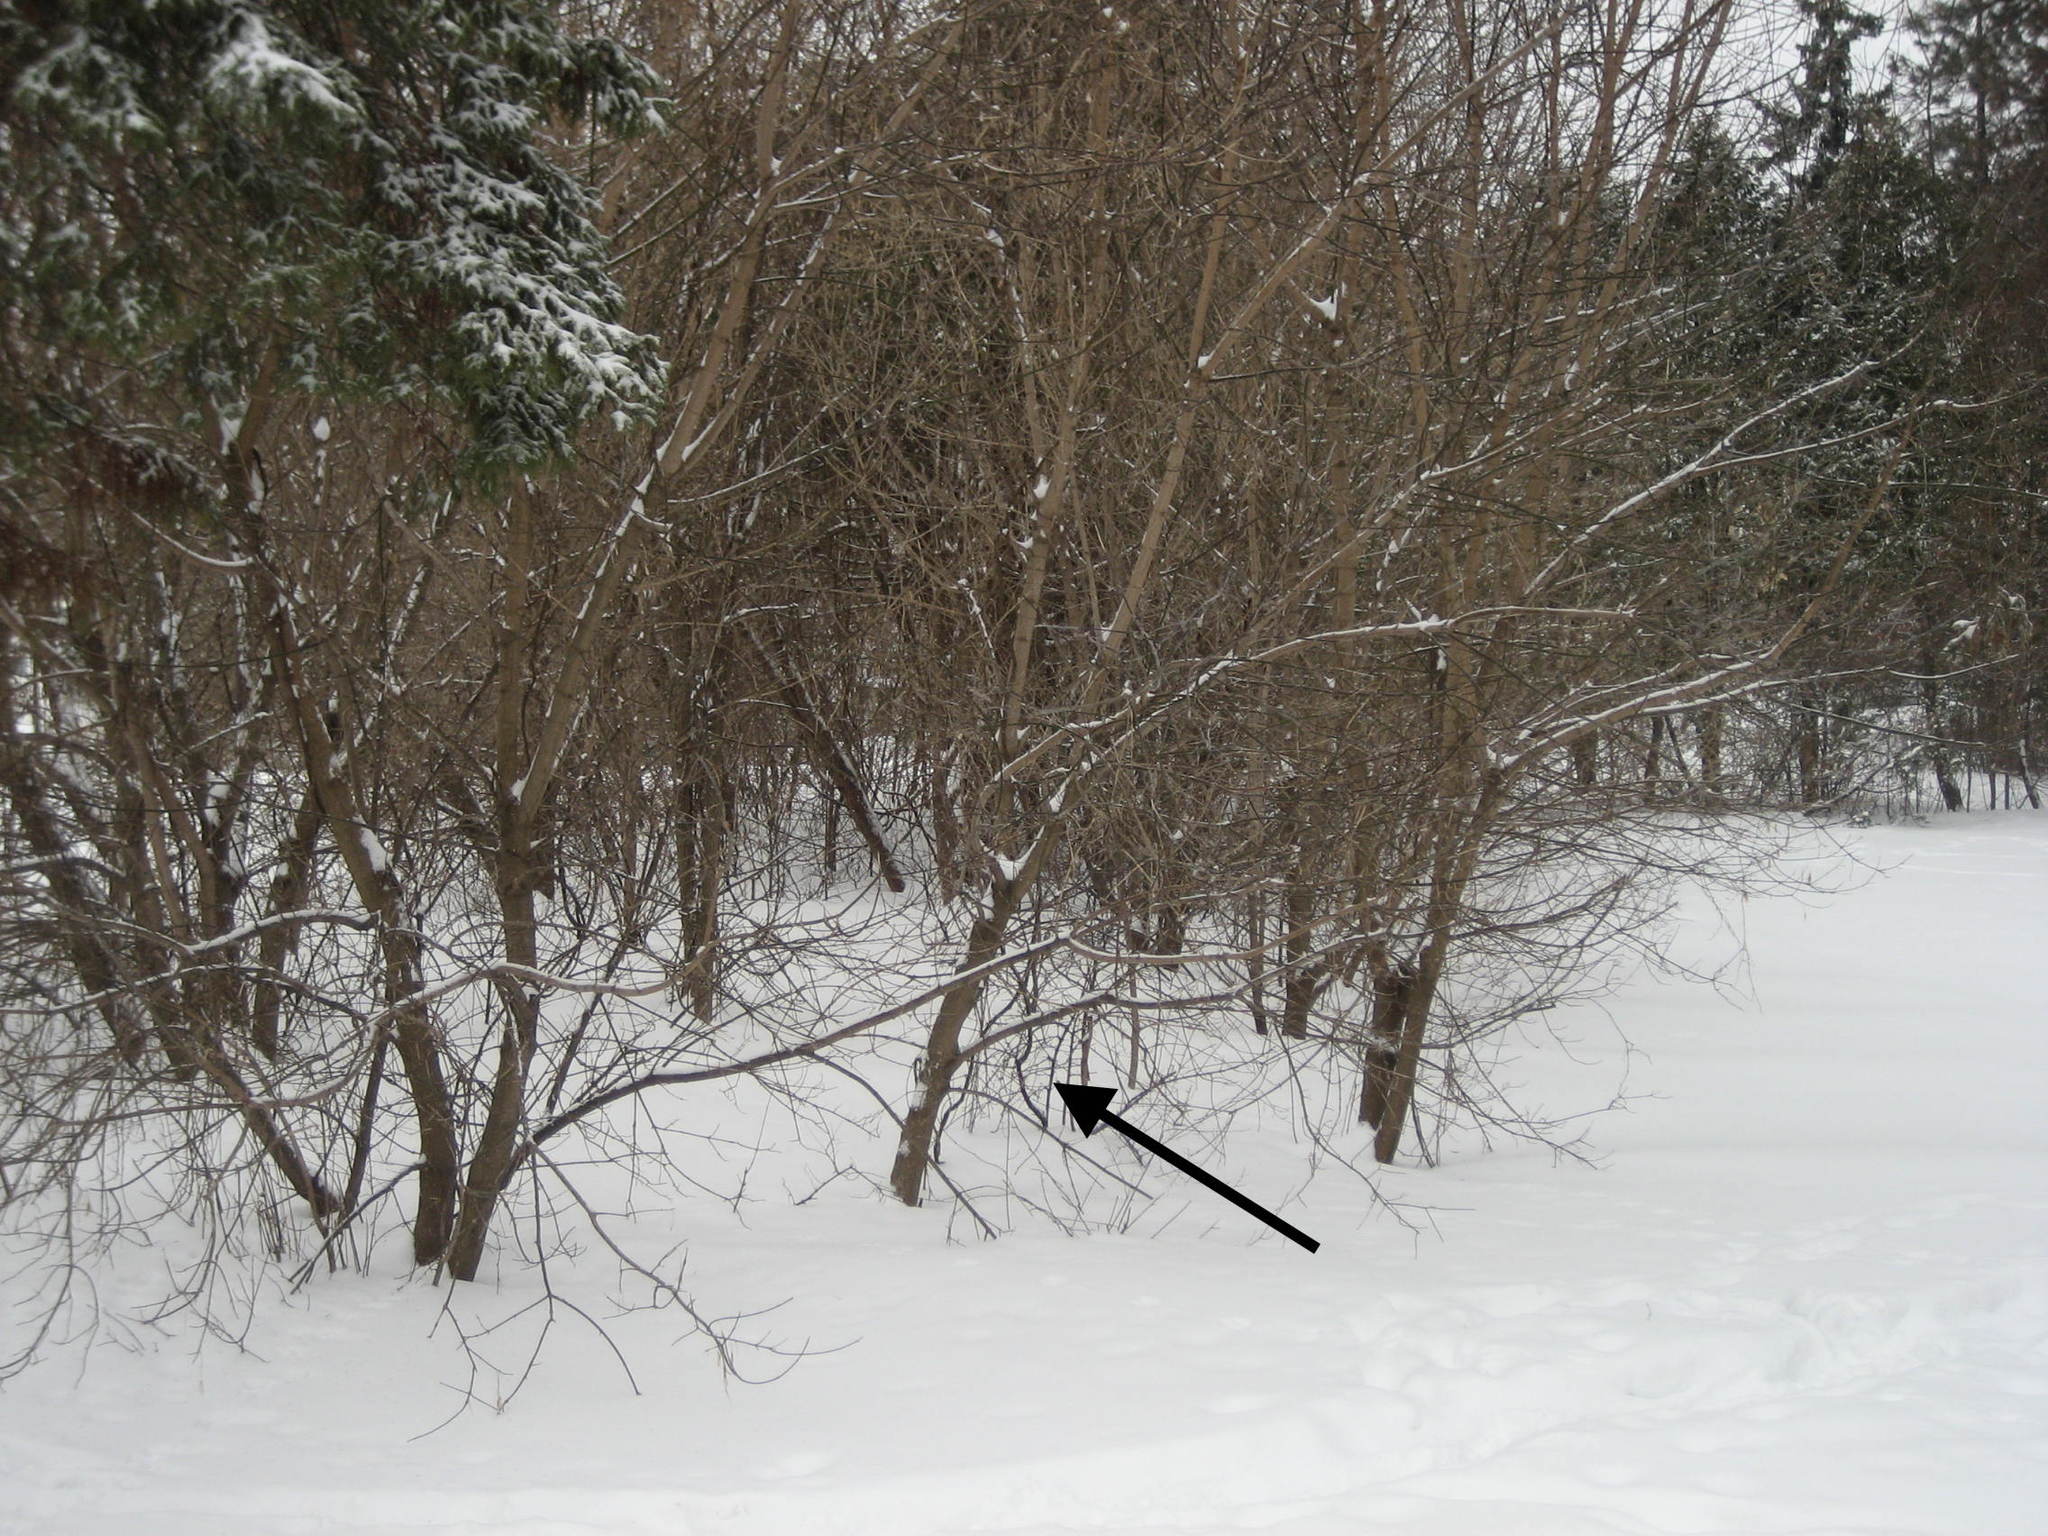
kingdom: Plantae
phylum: Tracheophyta
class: Magnoliopsida
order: Sapindales
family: Sapindaceae
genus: Acer
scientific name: Acer negundo
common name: Ashleaf maple
